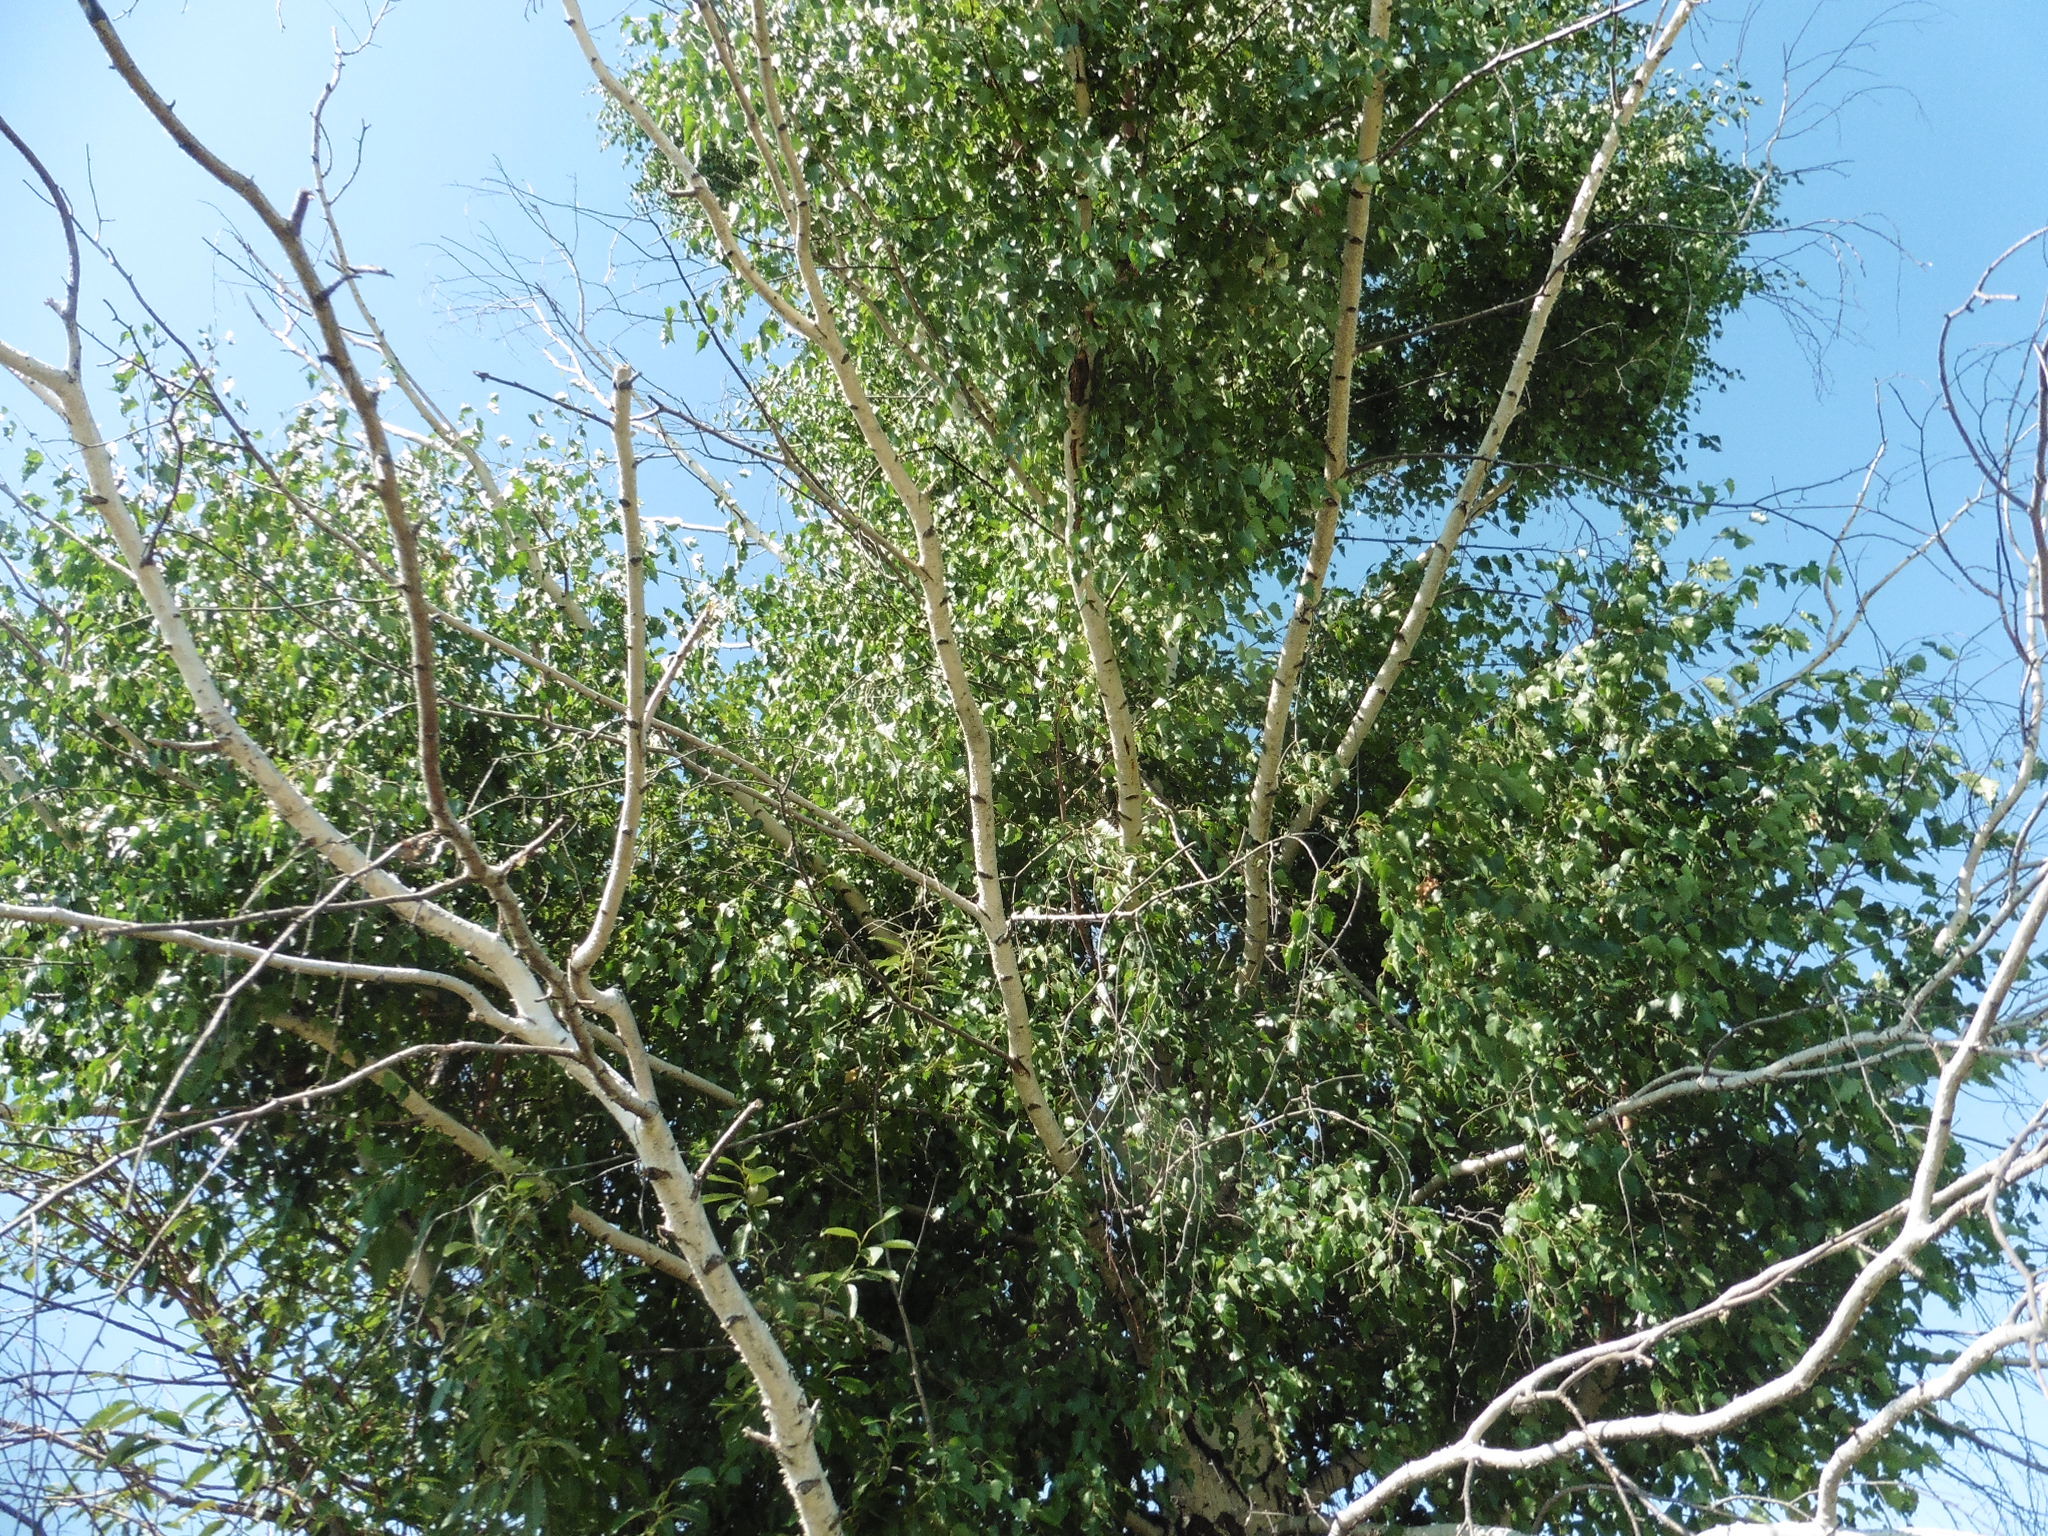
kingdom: Plantae
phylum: Tracheophyta
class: Magnoliopsida
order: Fagales
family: Betulaceae
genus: Betula
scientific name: Betula pendula
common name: Silver birch
